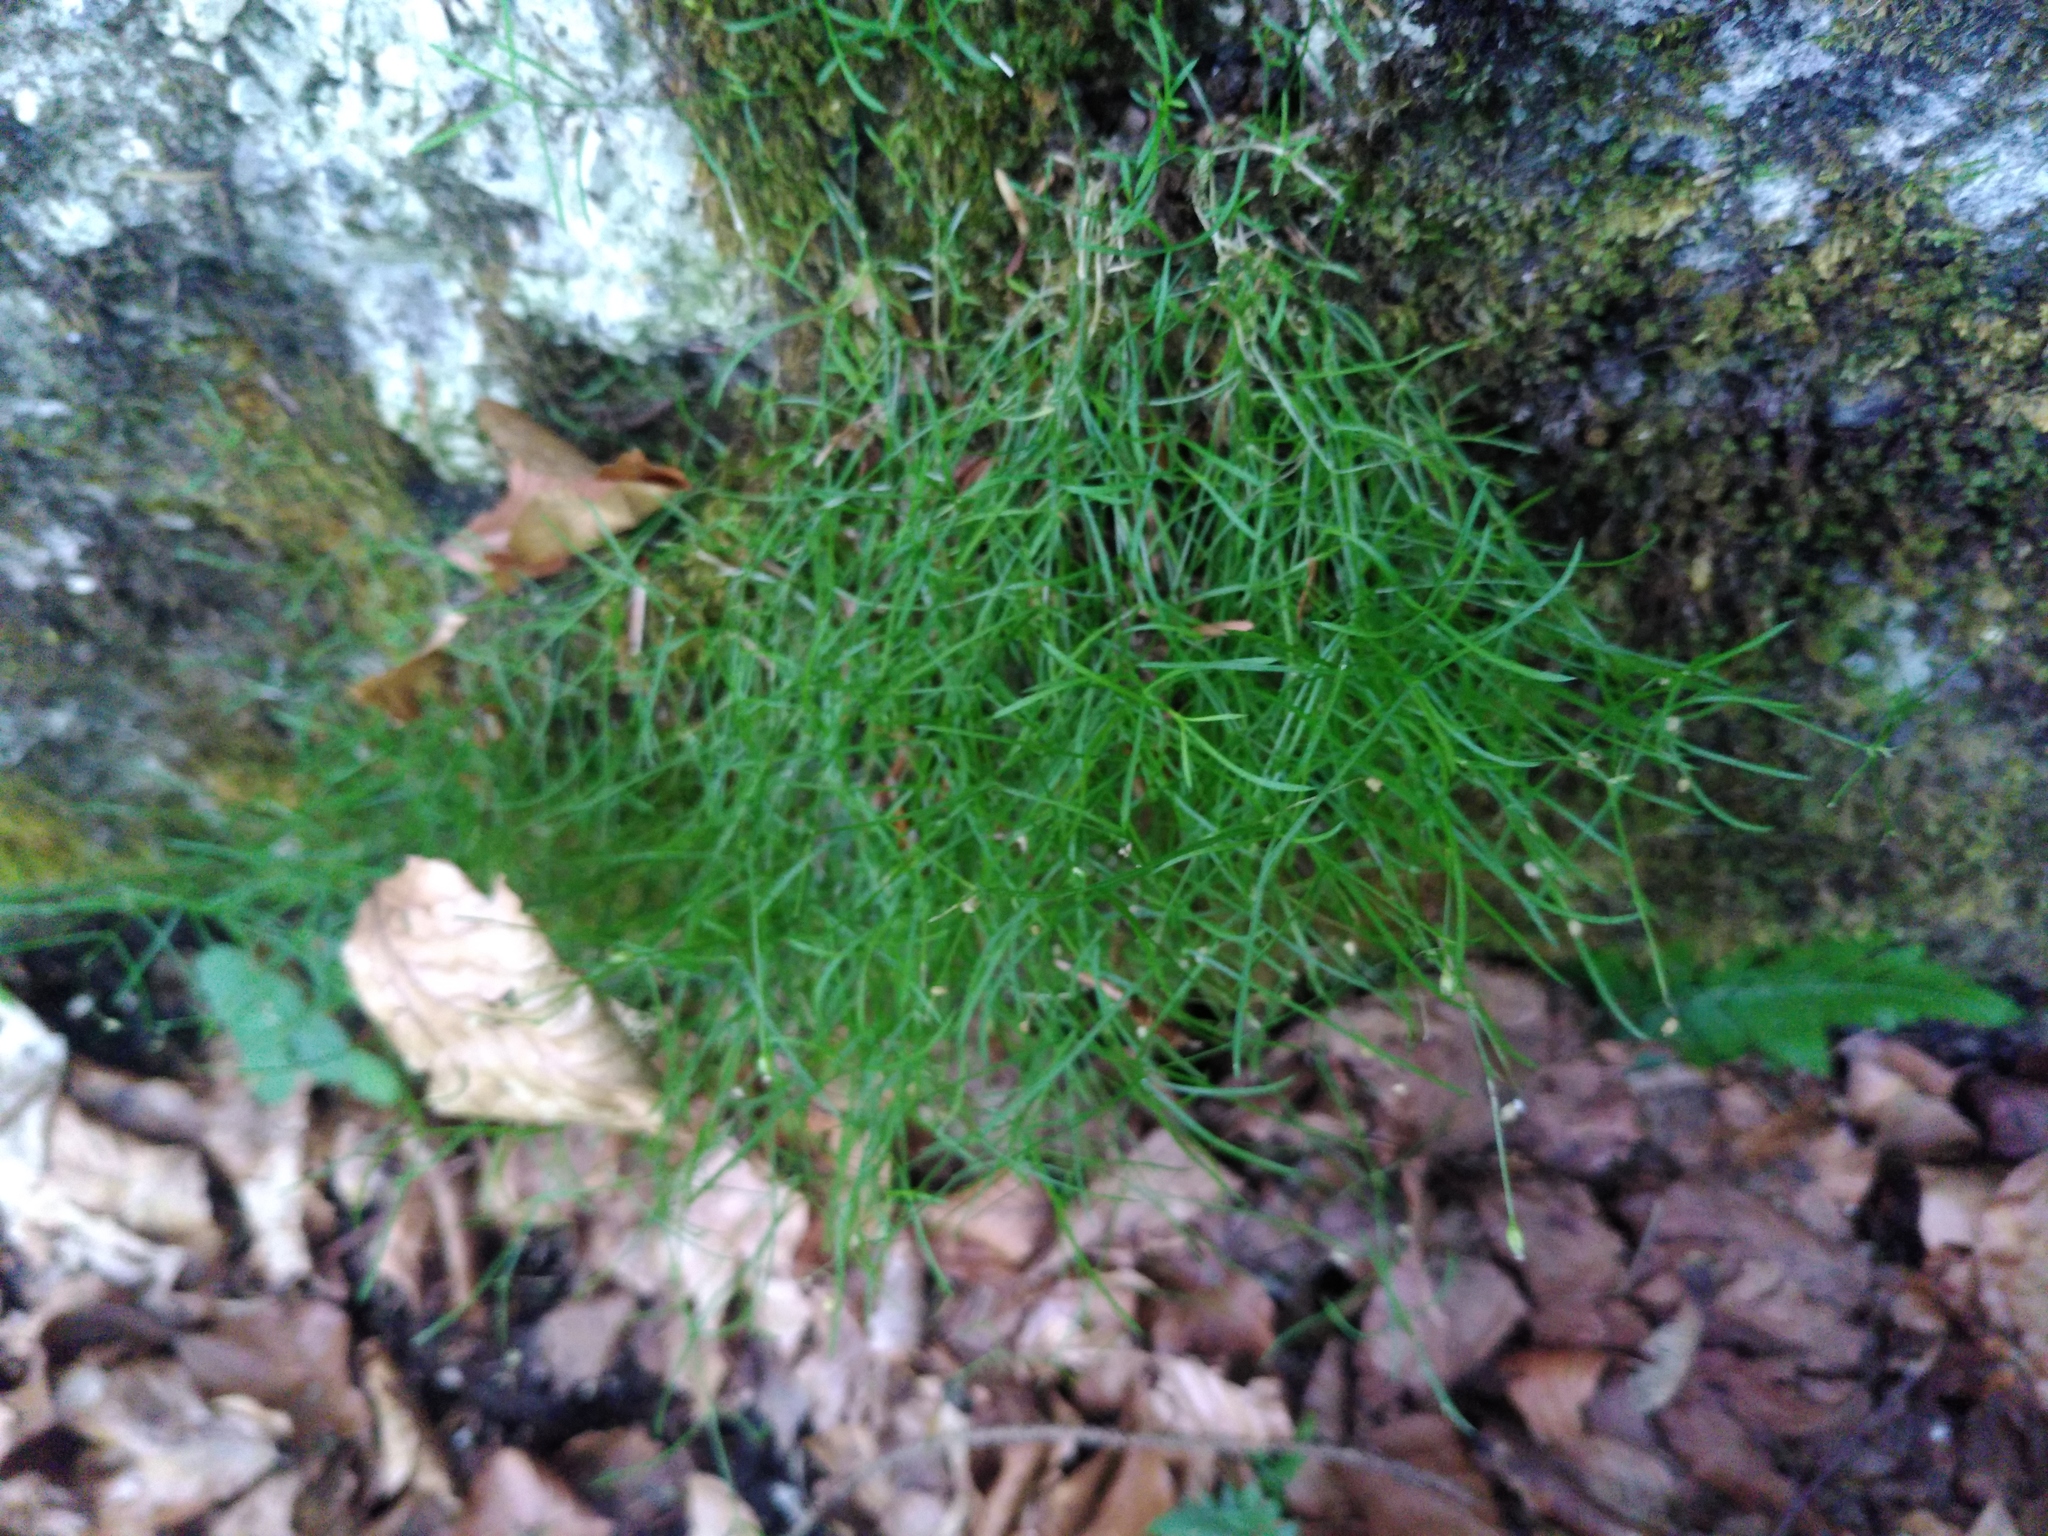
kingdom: Plantae
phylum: Tracheophyta
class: Magnoliopsida
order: Caryophyllales
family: Caryophyllaceae
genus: Moehringia
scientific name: Moehringia muscosa
